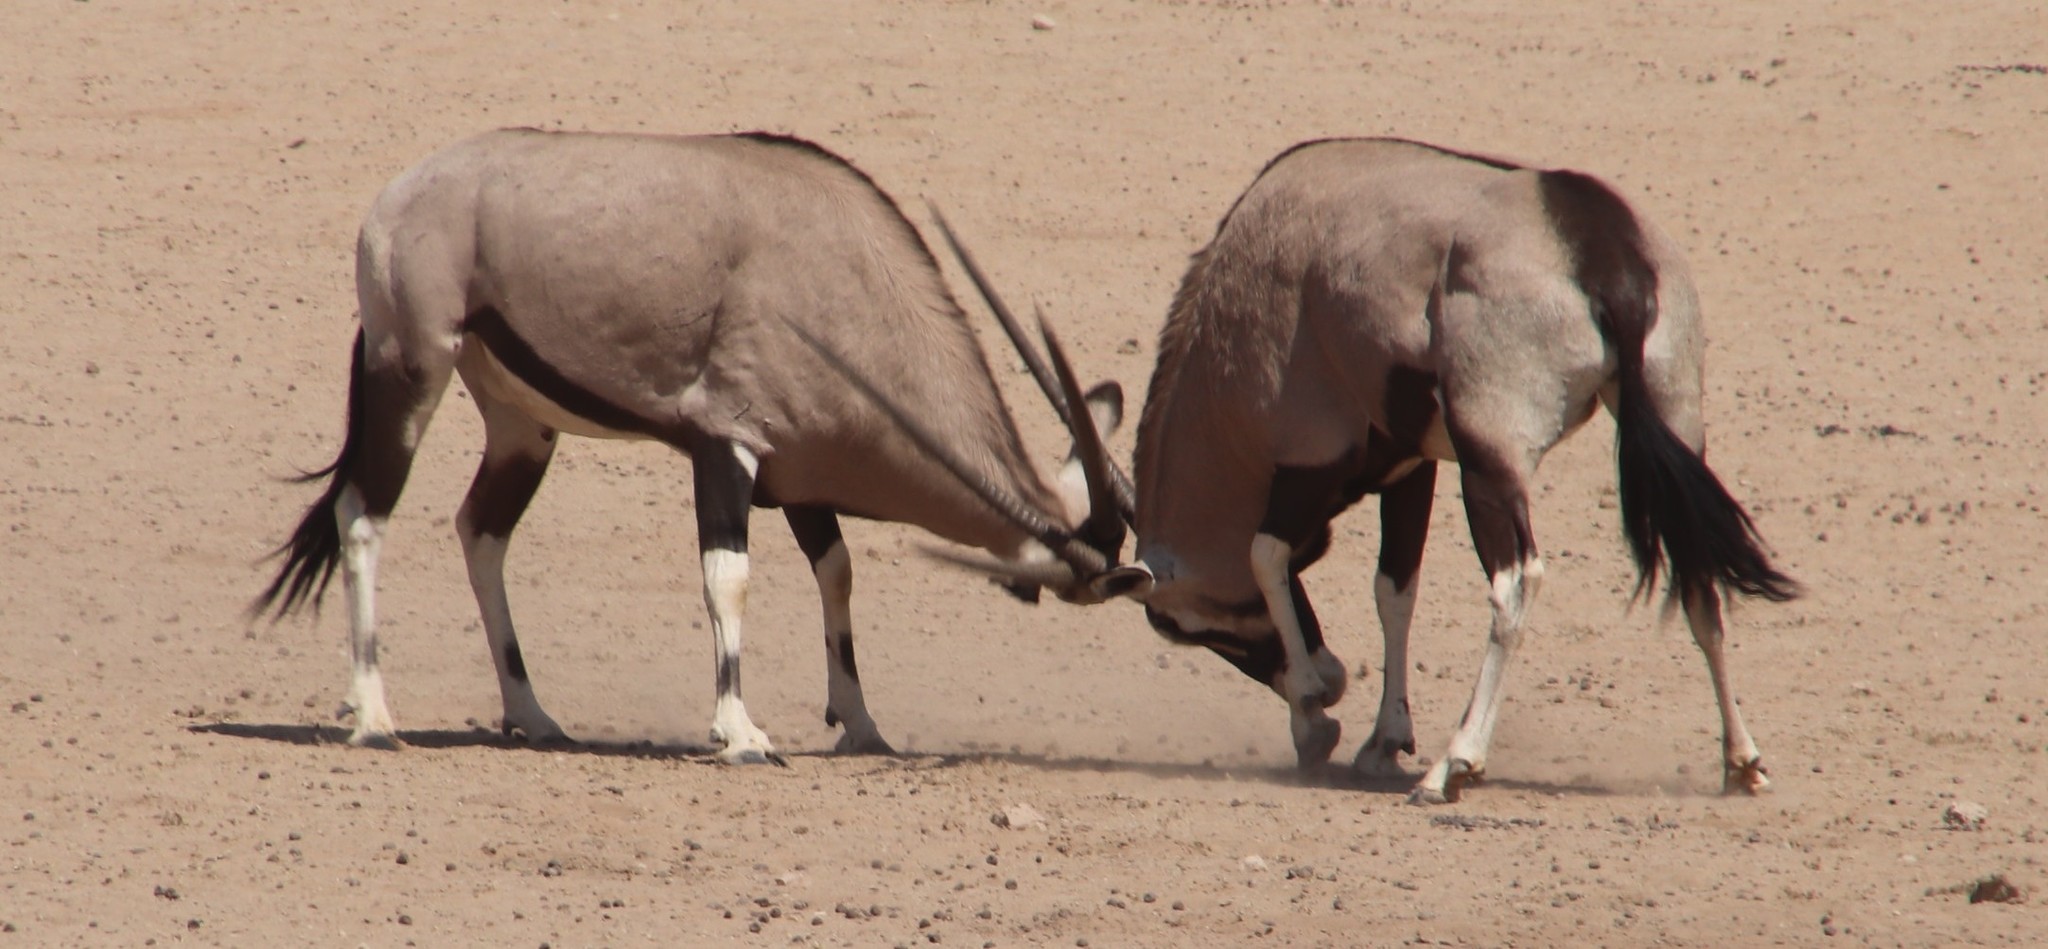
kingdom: Animalia
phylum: Chordata
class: Mammalia
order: Artiodactyla
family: Bovidae
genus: Oryx
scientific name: Oryx gazella
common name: Gemsbok
